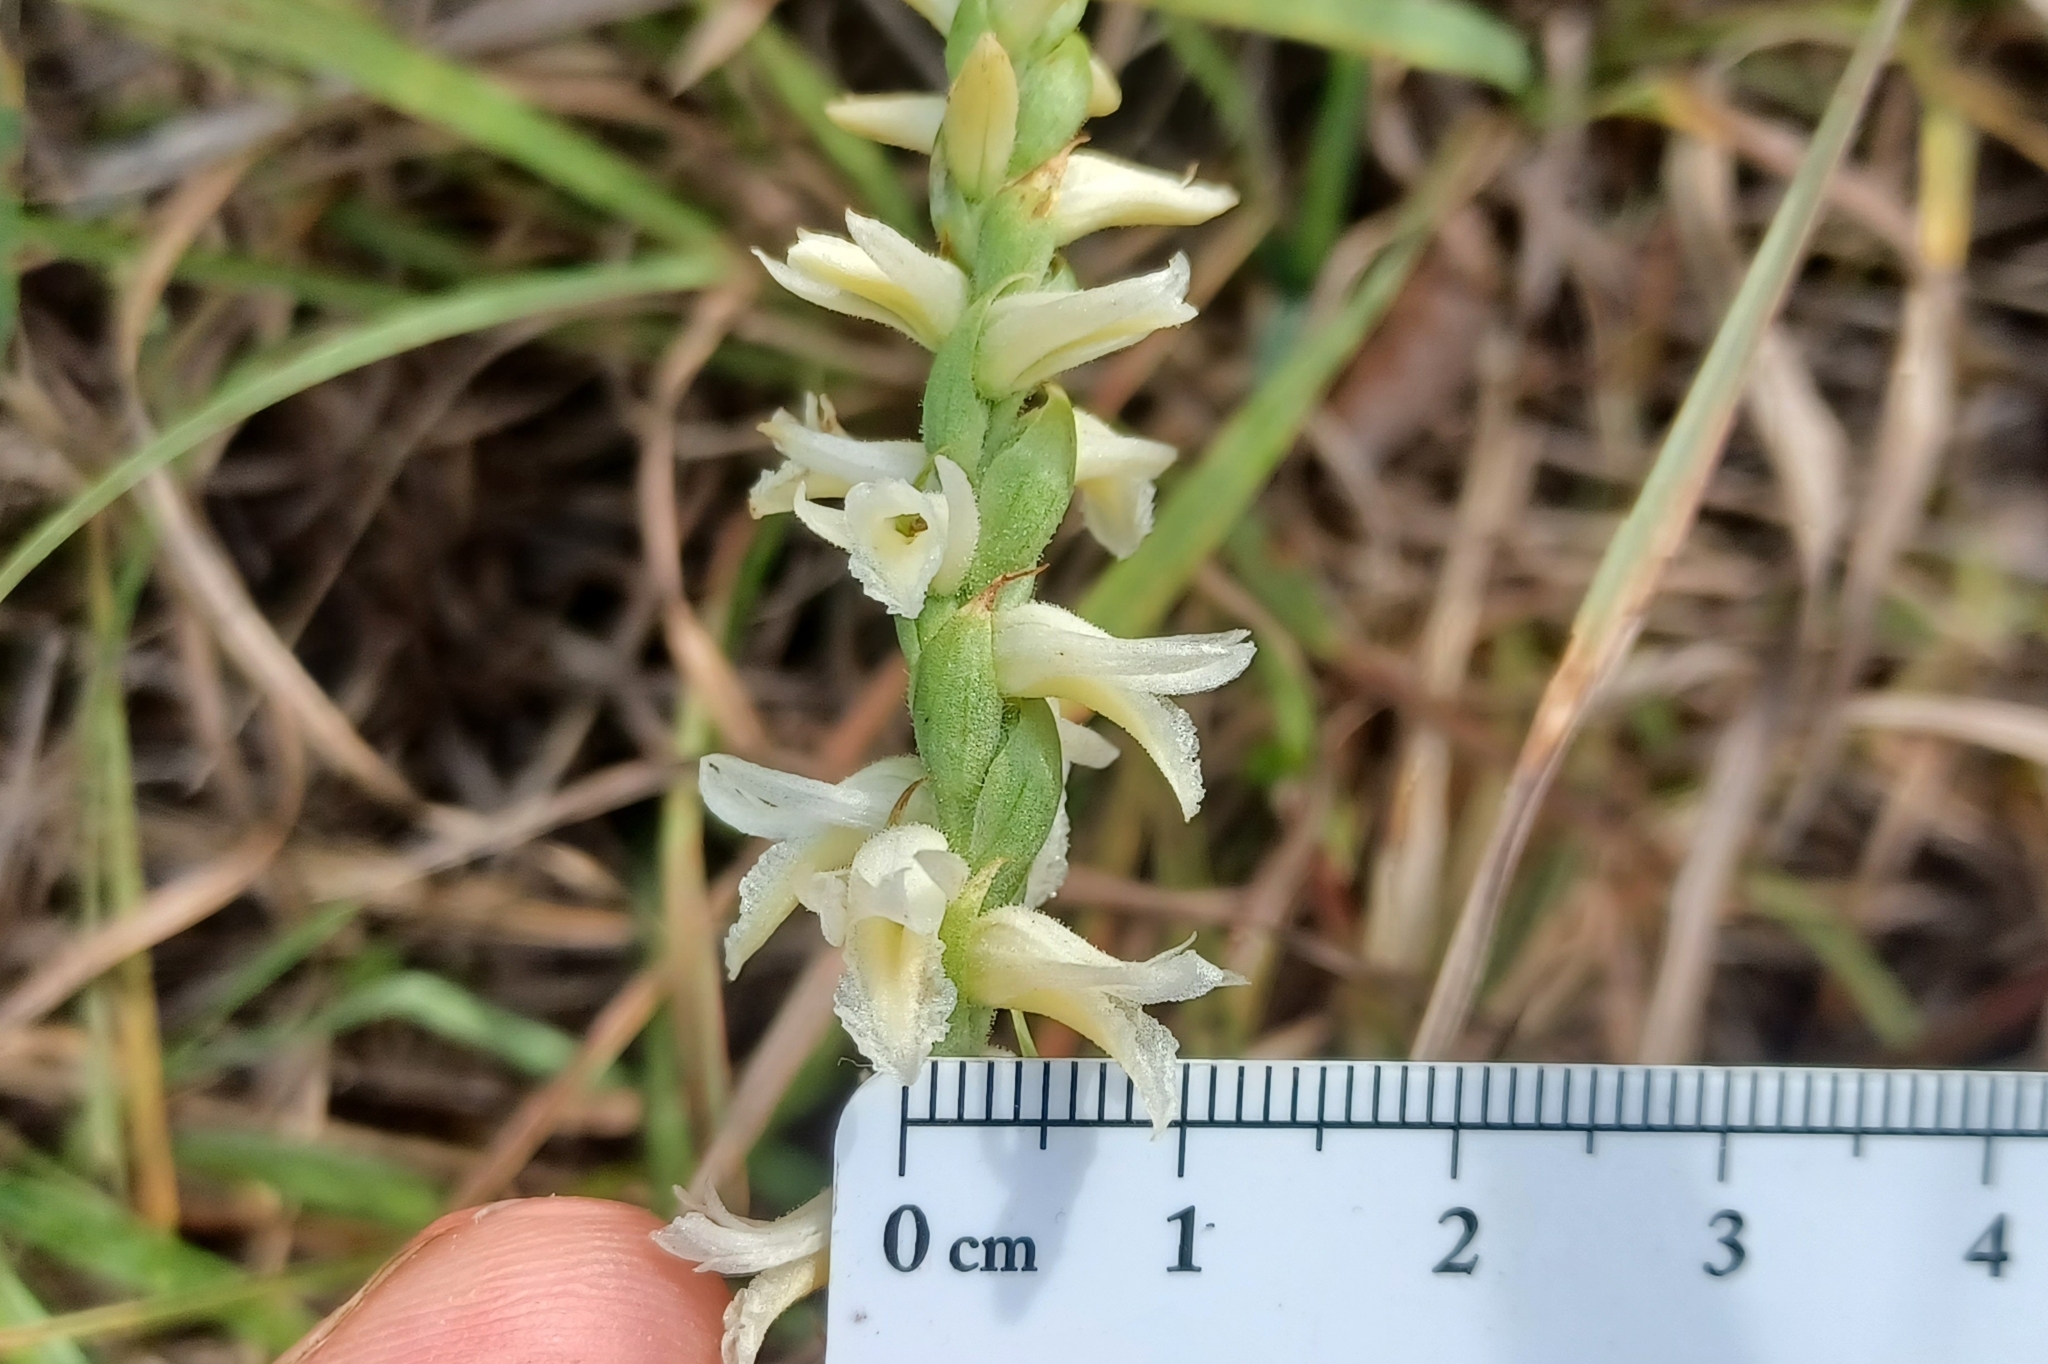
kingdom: Plantae
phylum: Tracheophyta
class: Liliopsida
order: Asparagales
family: Orchidaceae
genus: Spiranthes
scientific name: Spiranthes magnicamporum
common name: Great plains ladies'-tresses
